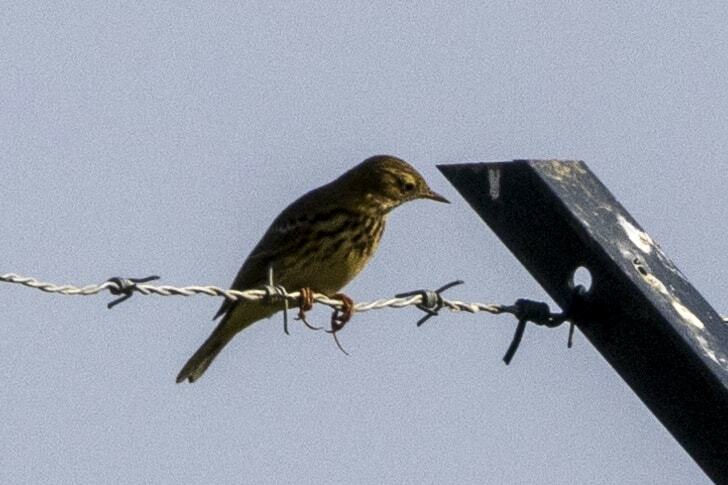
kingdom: Animalia
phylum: Chordata
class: Aves
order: Passeriformes
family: Motacillidae
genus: Anthus
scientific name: Anthus pratensis
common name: Meadow pipit
